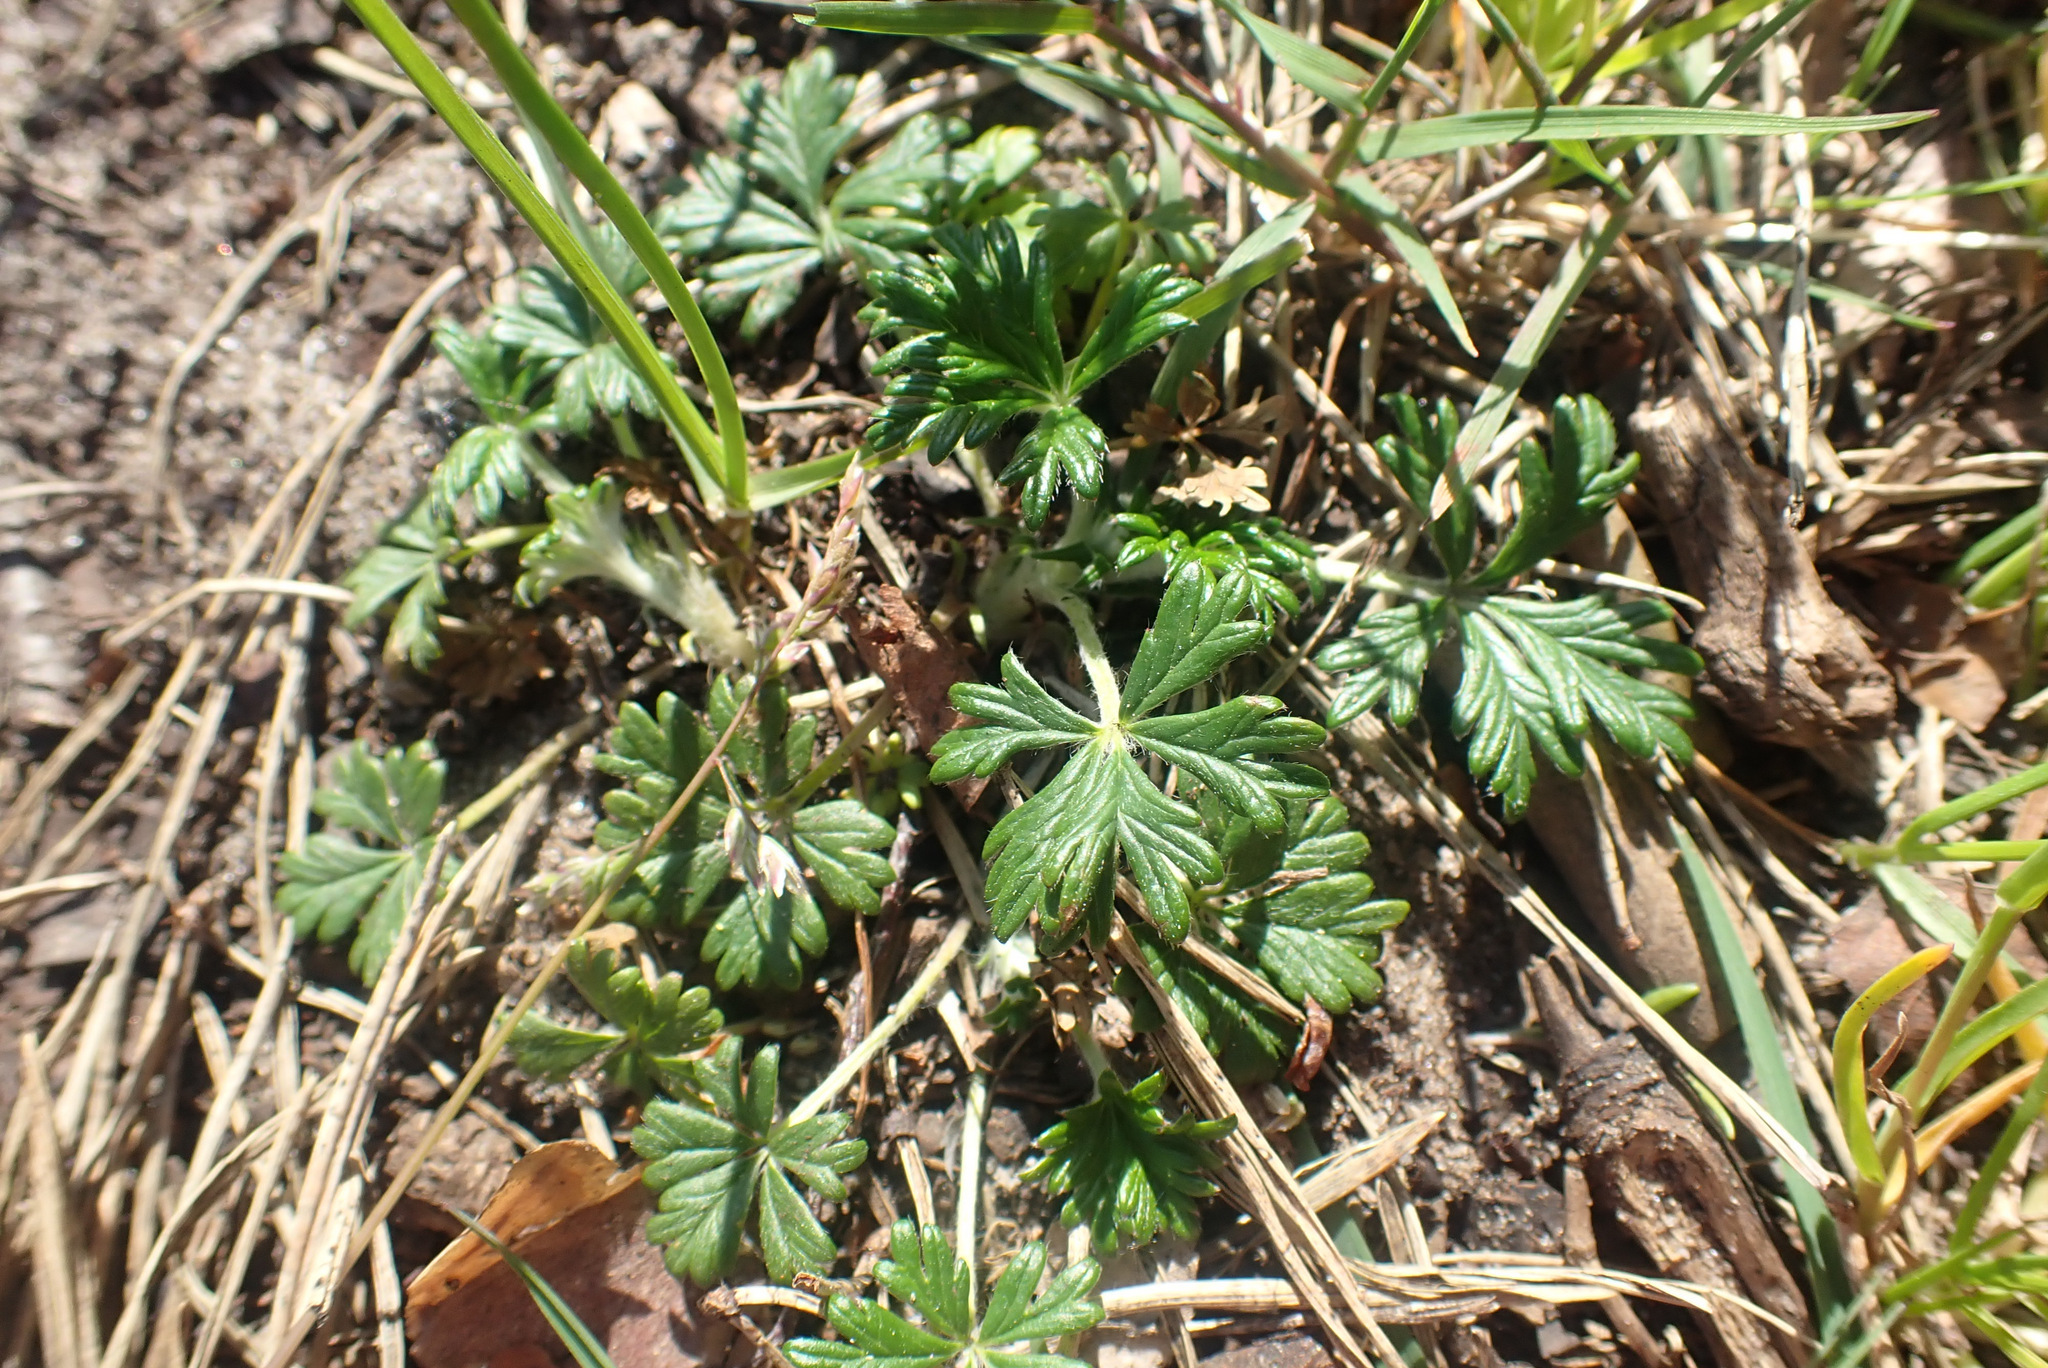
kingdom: Plantae
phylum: Tracheophyta
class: Magnoliopsida
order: Rosales
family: Rosaceae
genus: Potentilla
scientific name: Potentilla argentea
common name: Hoary cinquefoil
